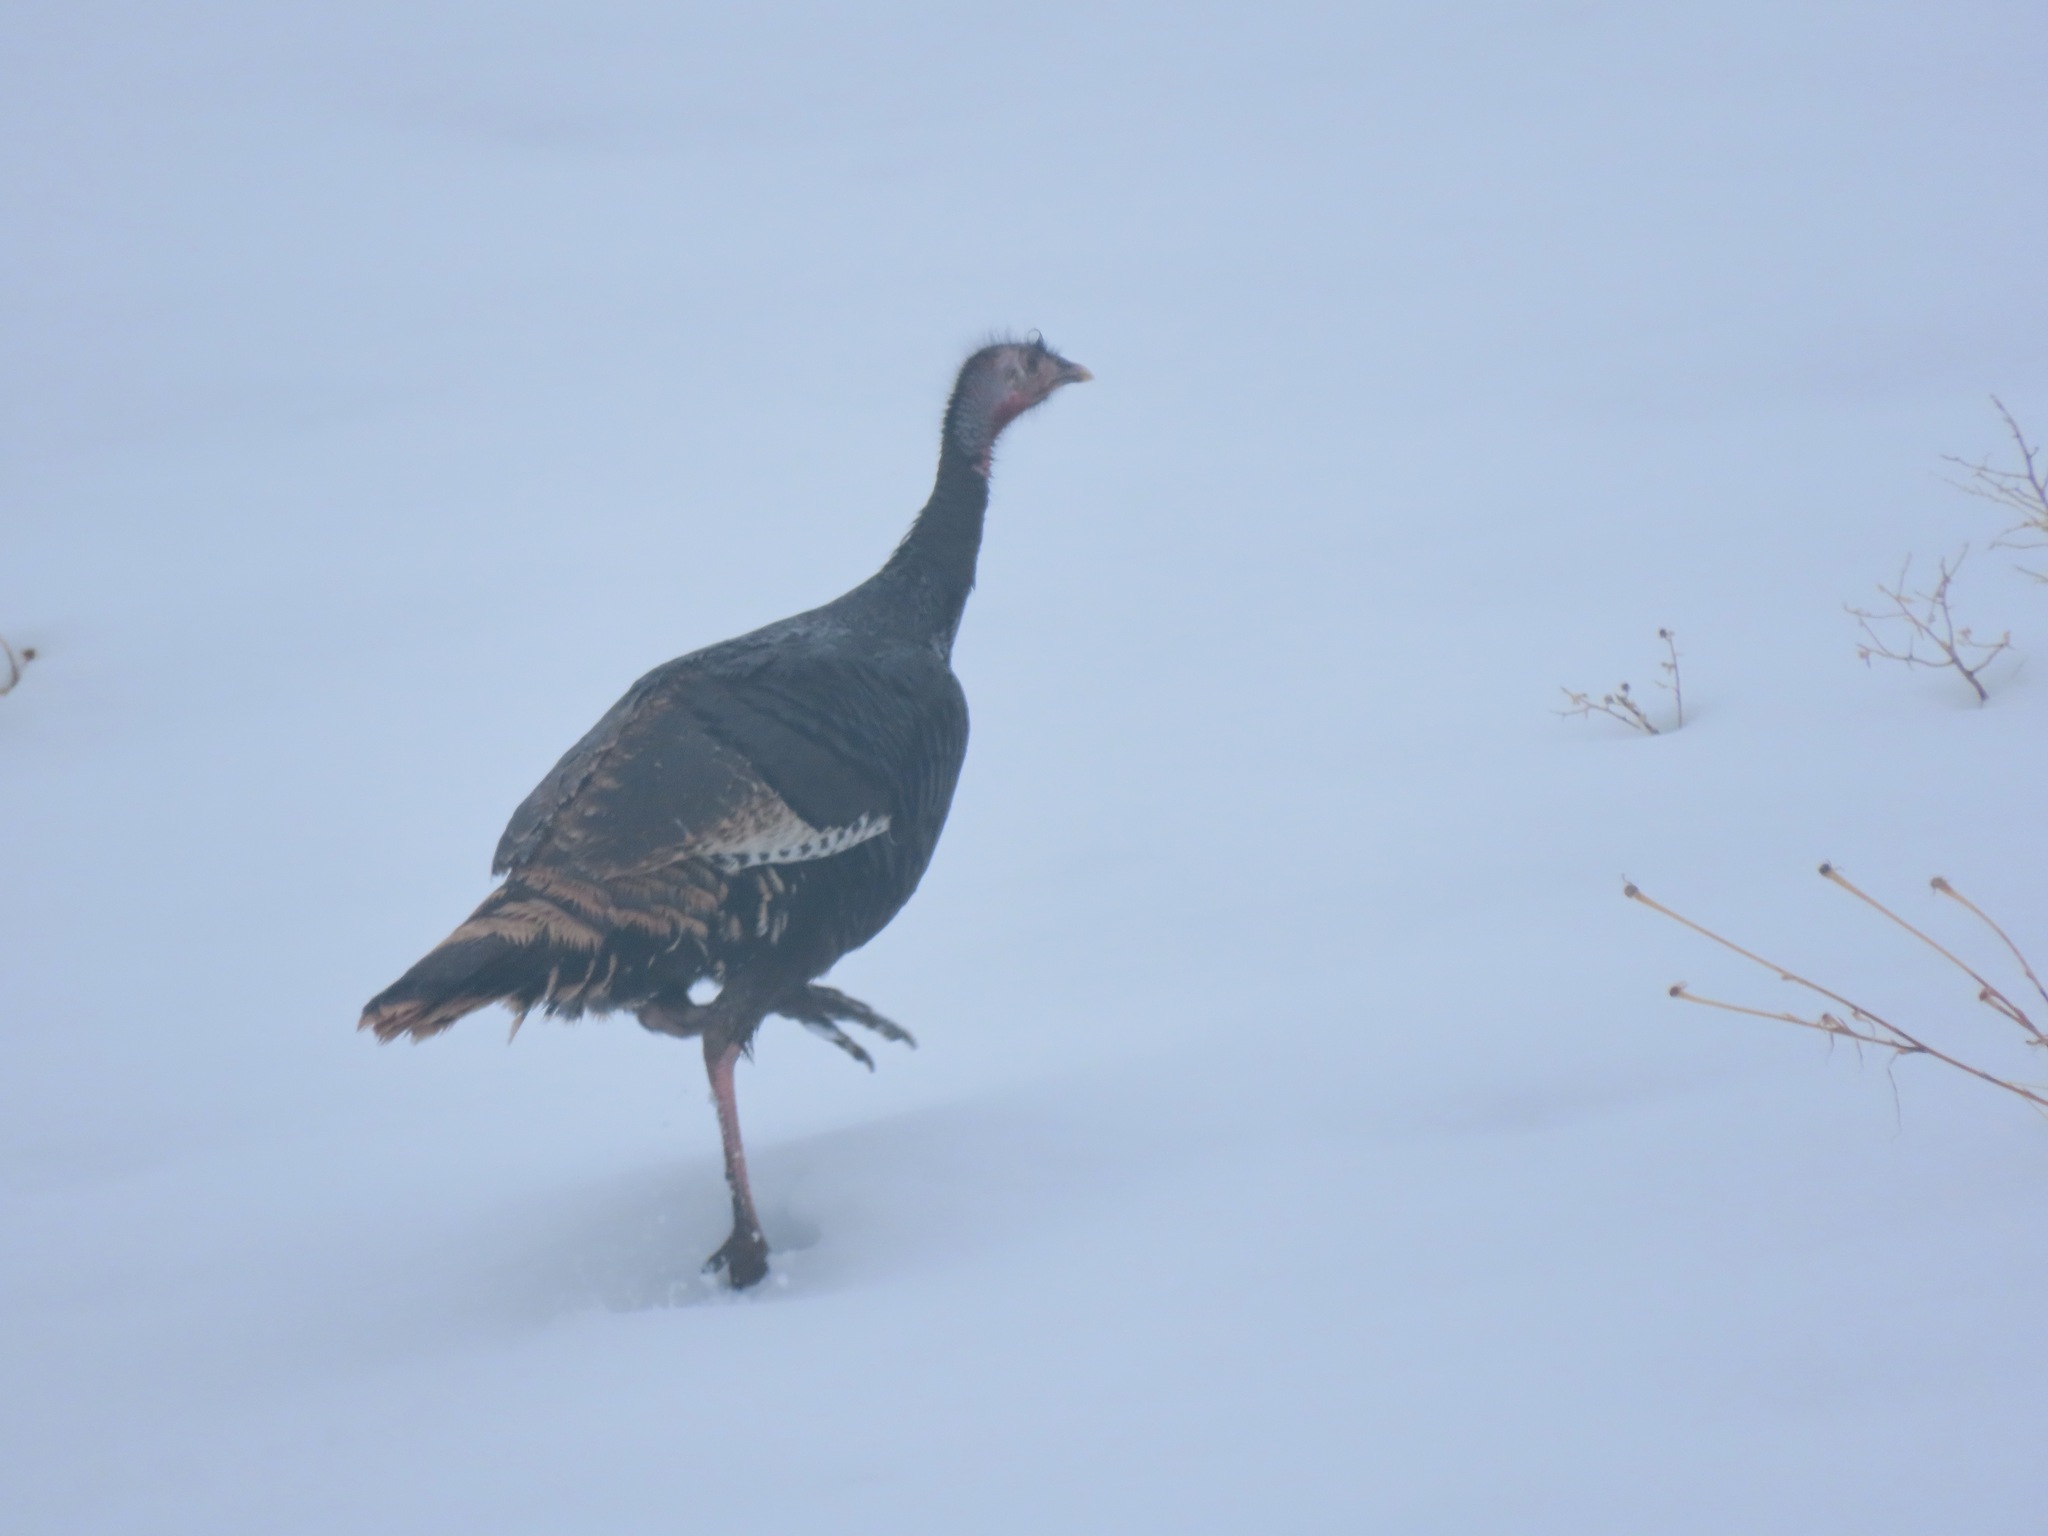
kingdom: Animalia
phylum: Chordata
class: Aves
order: Galliformes
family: Phasianidae
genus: Meleagris
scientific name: Meleagris gallopavo
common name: Wild turkey
